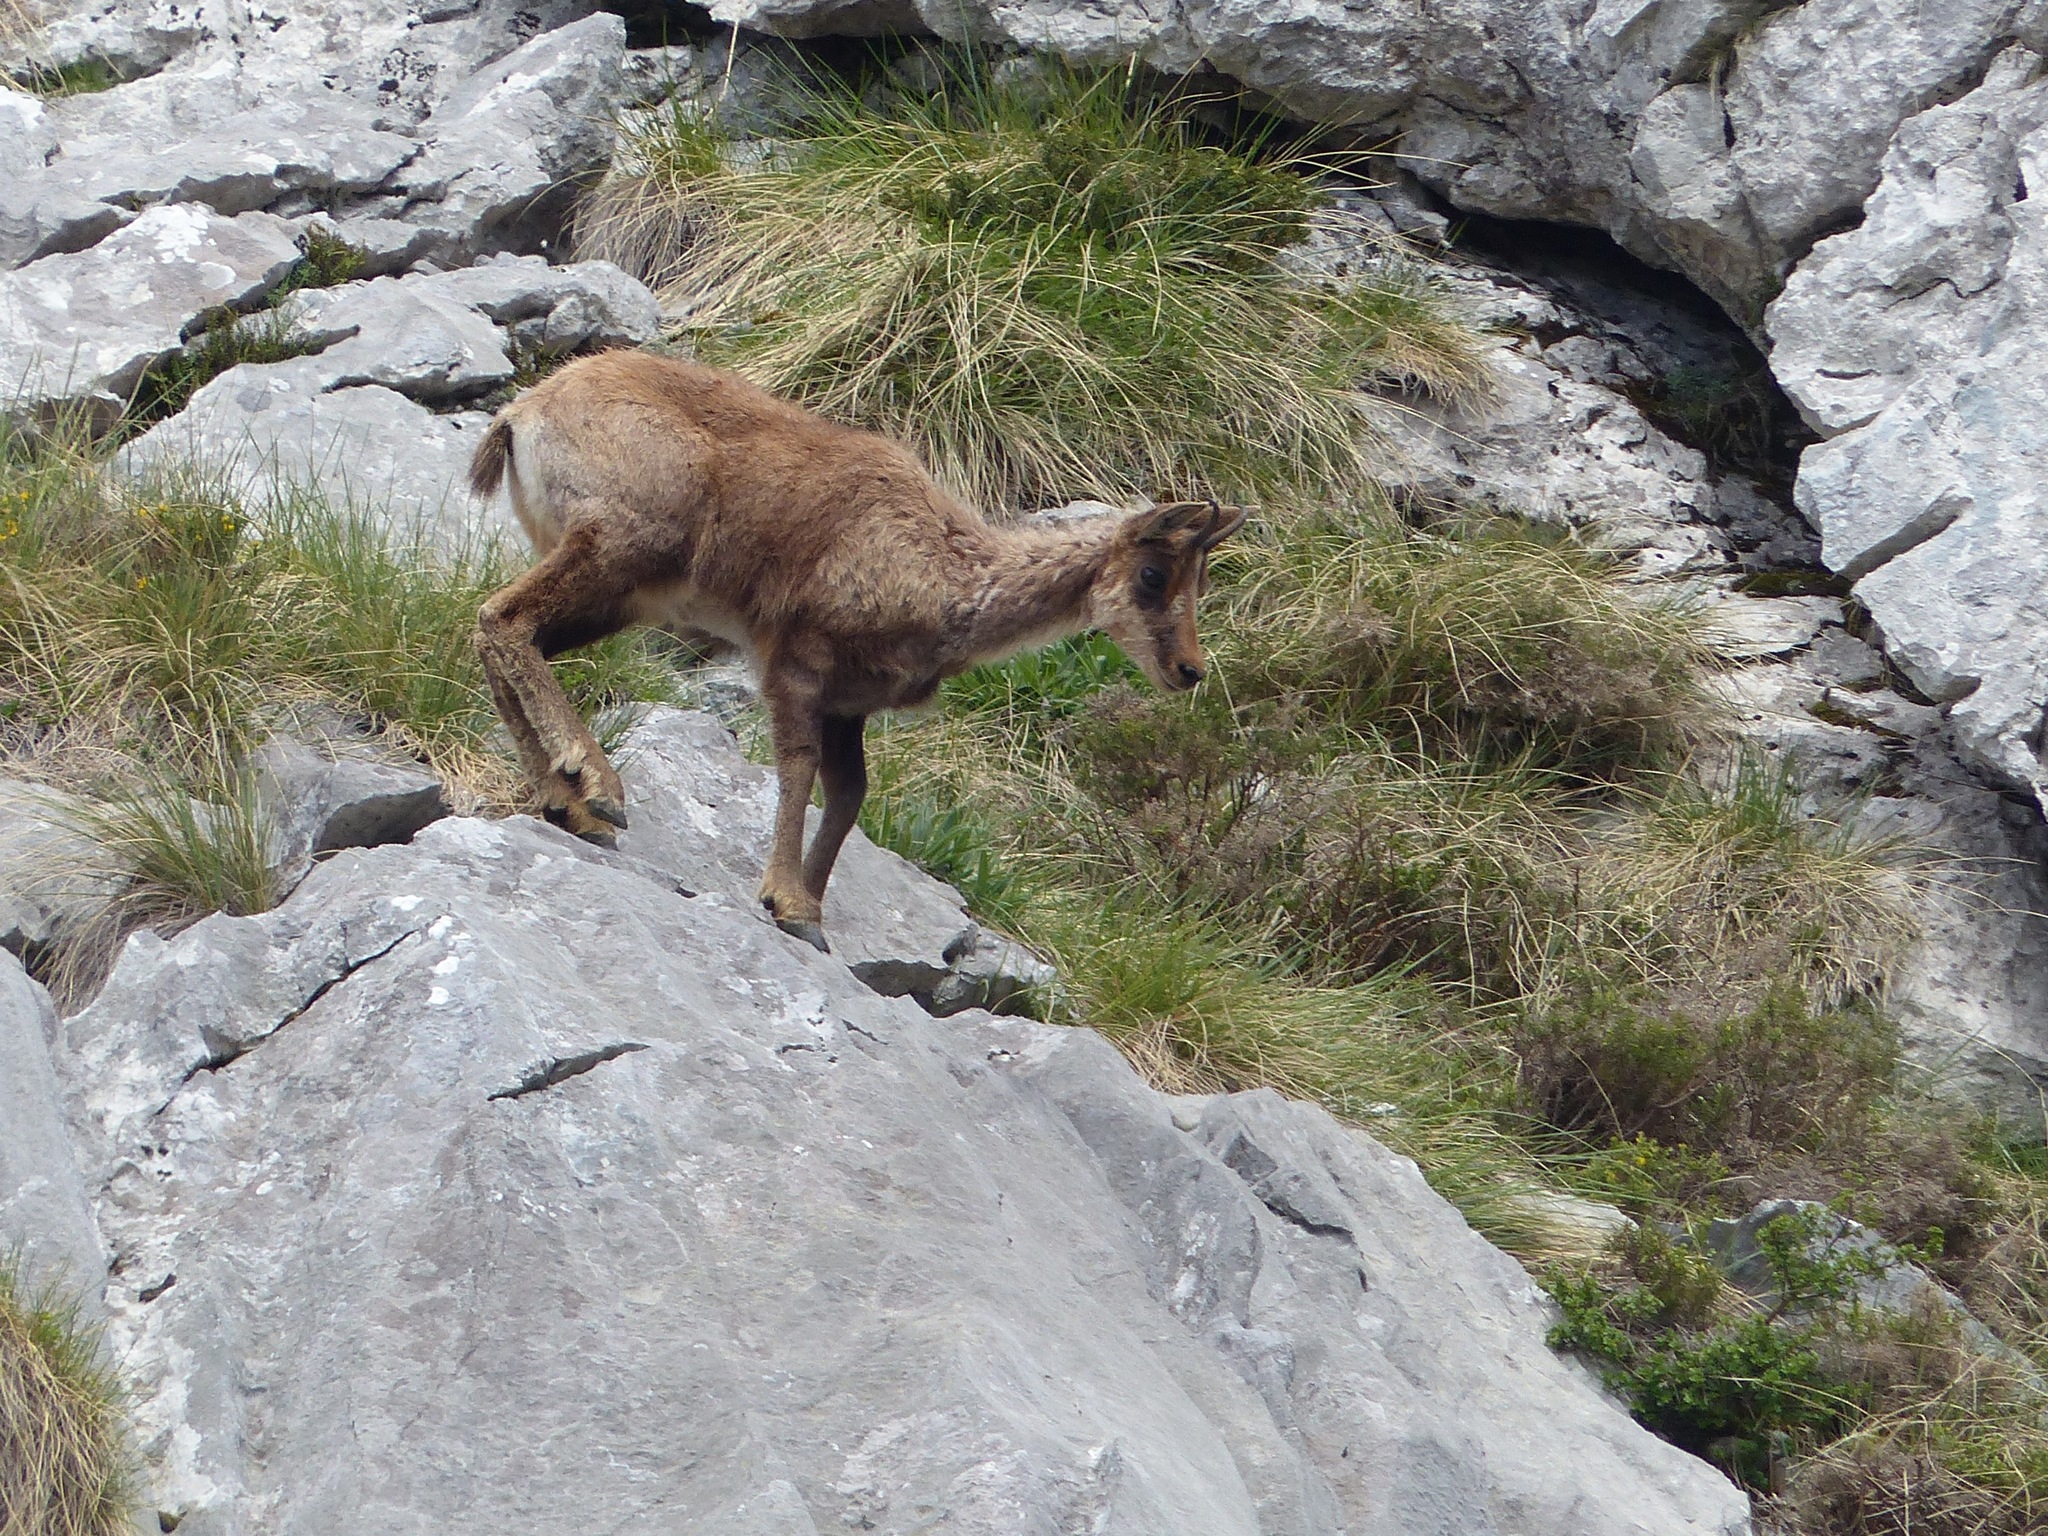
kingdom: Animalia
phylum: Chordata
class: Mammalia
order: Artiodactyla
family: Bovidae
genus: Rupicapra
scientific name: Rupicapra pyrenaica
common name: Pyrenean chamois
